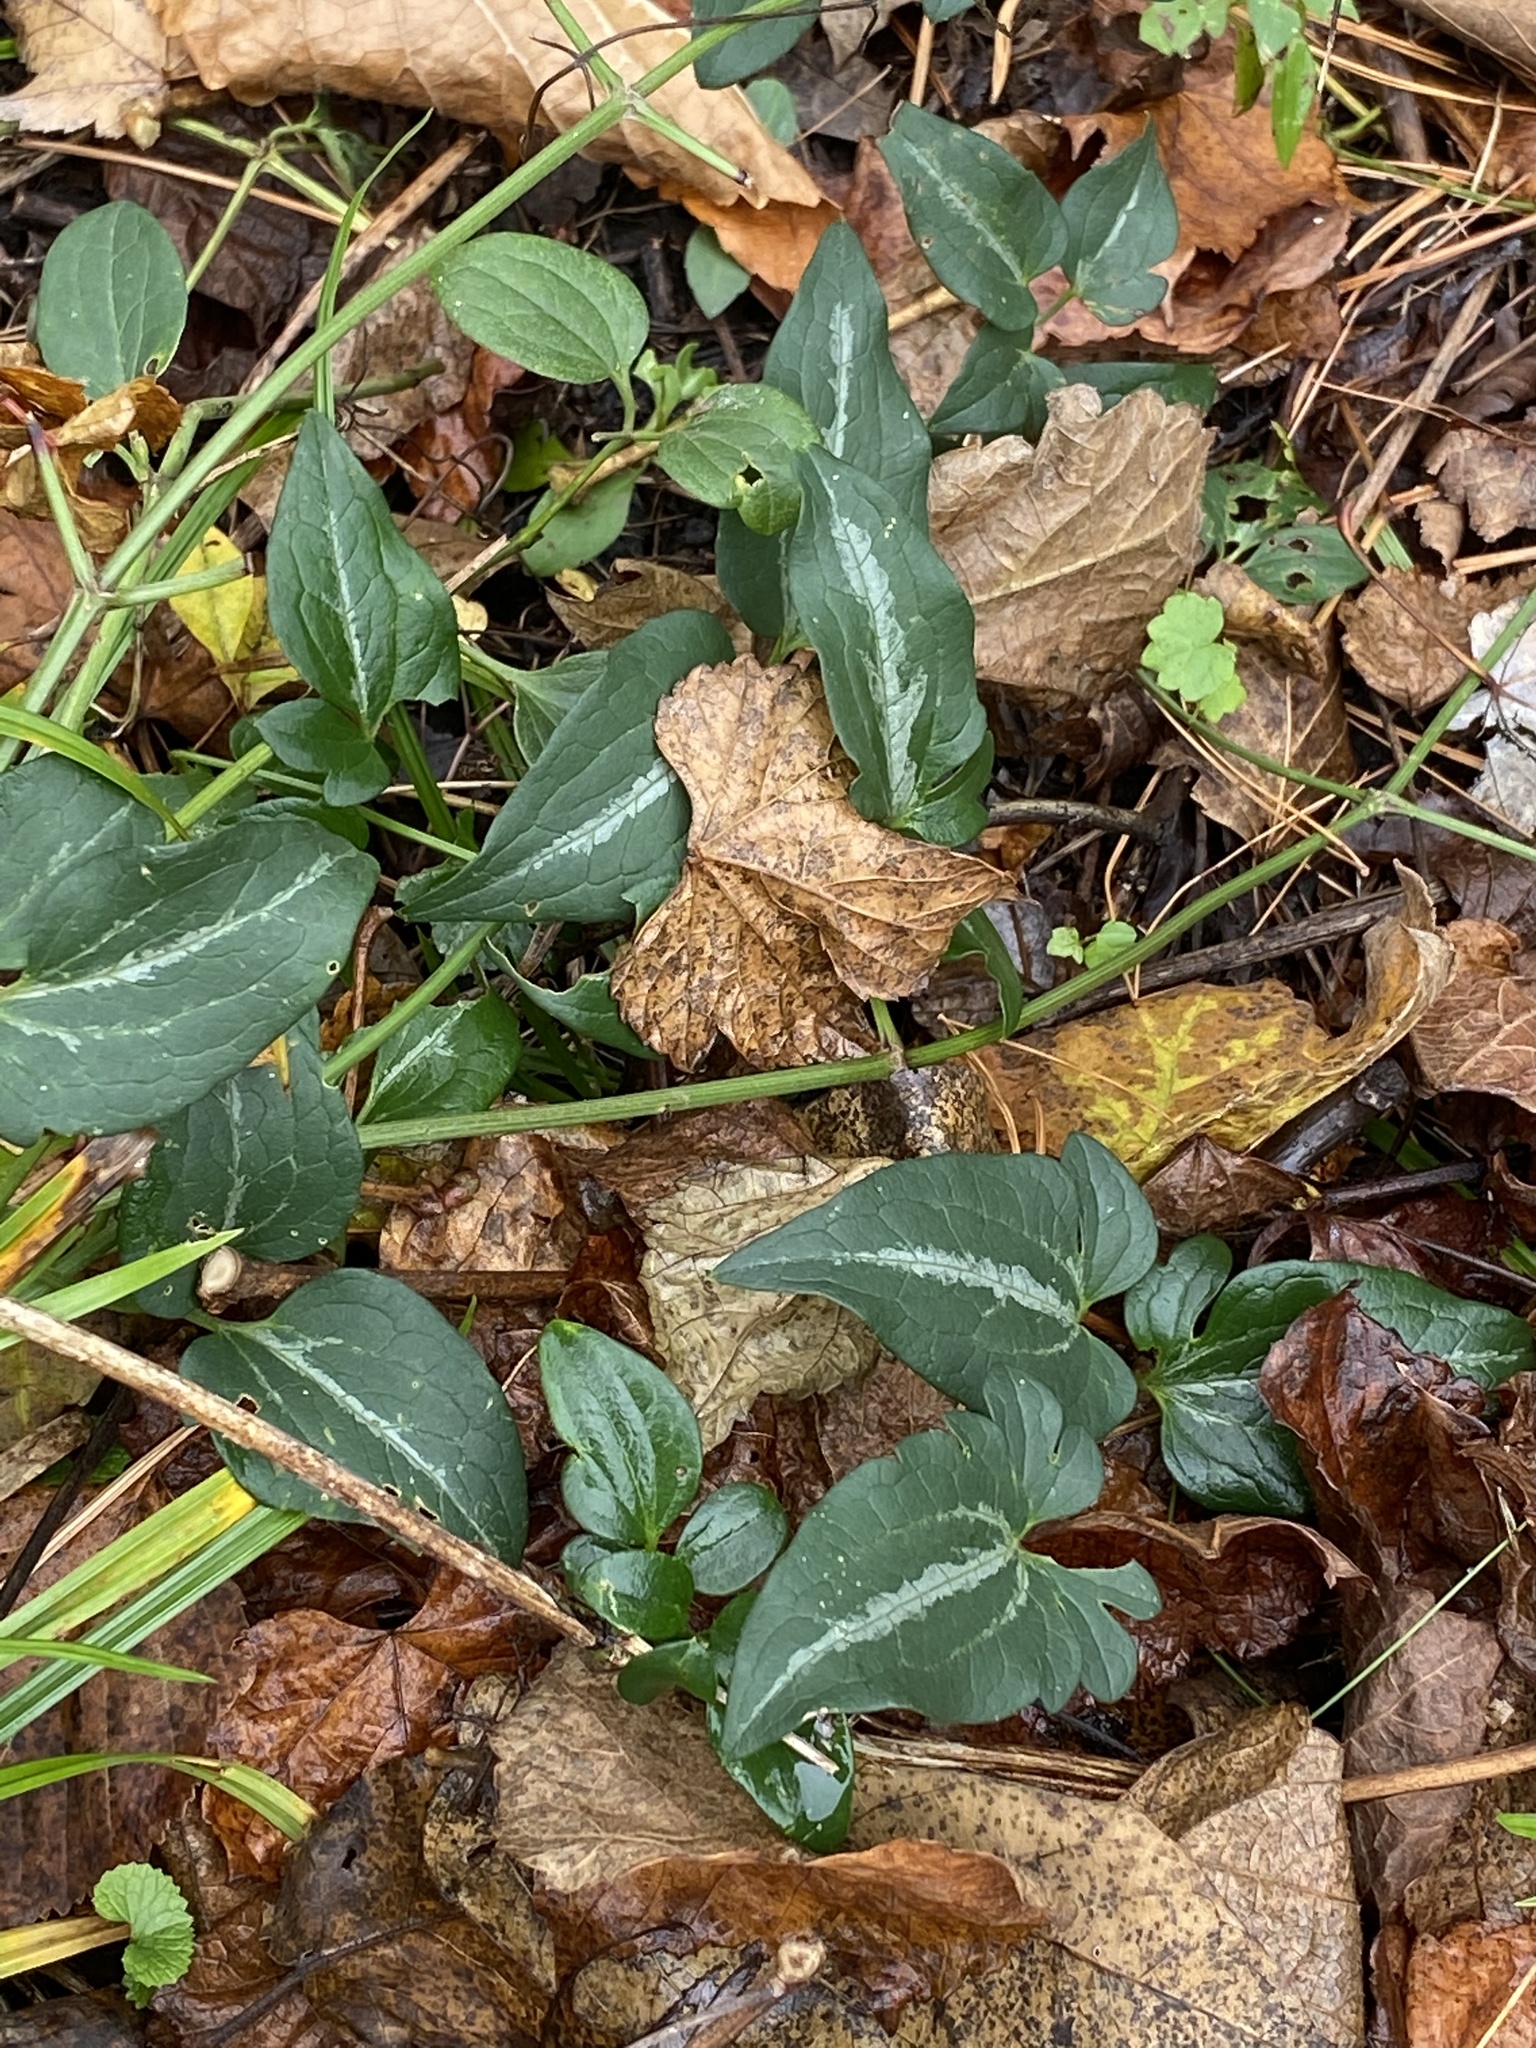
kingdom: Plantae
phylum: Tracheophyta
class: Magnoliopsida
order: Ranunculales
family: Ranunculaceae
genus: Clematis
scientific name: Clematis terniflora
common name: Sweet autumn clematis
